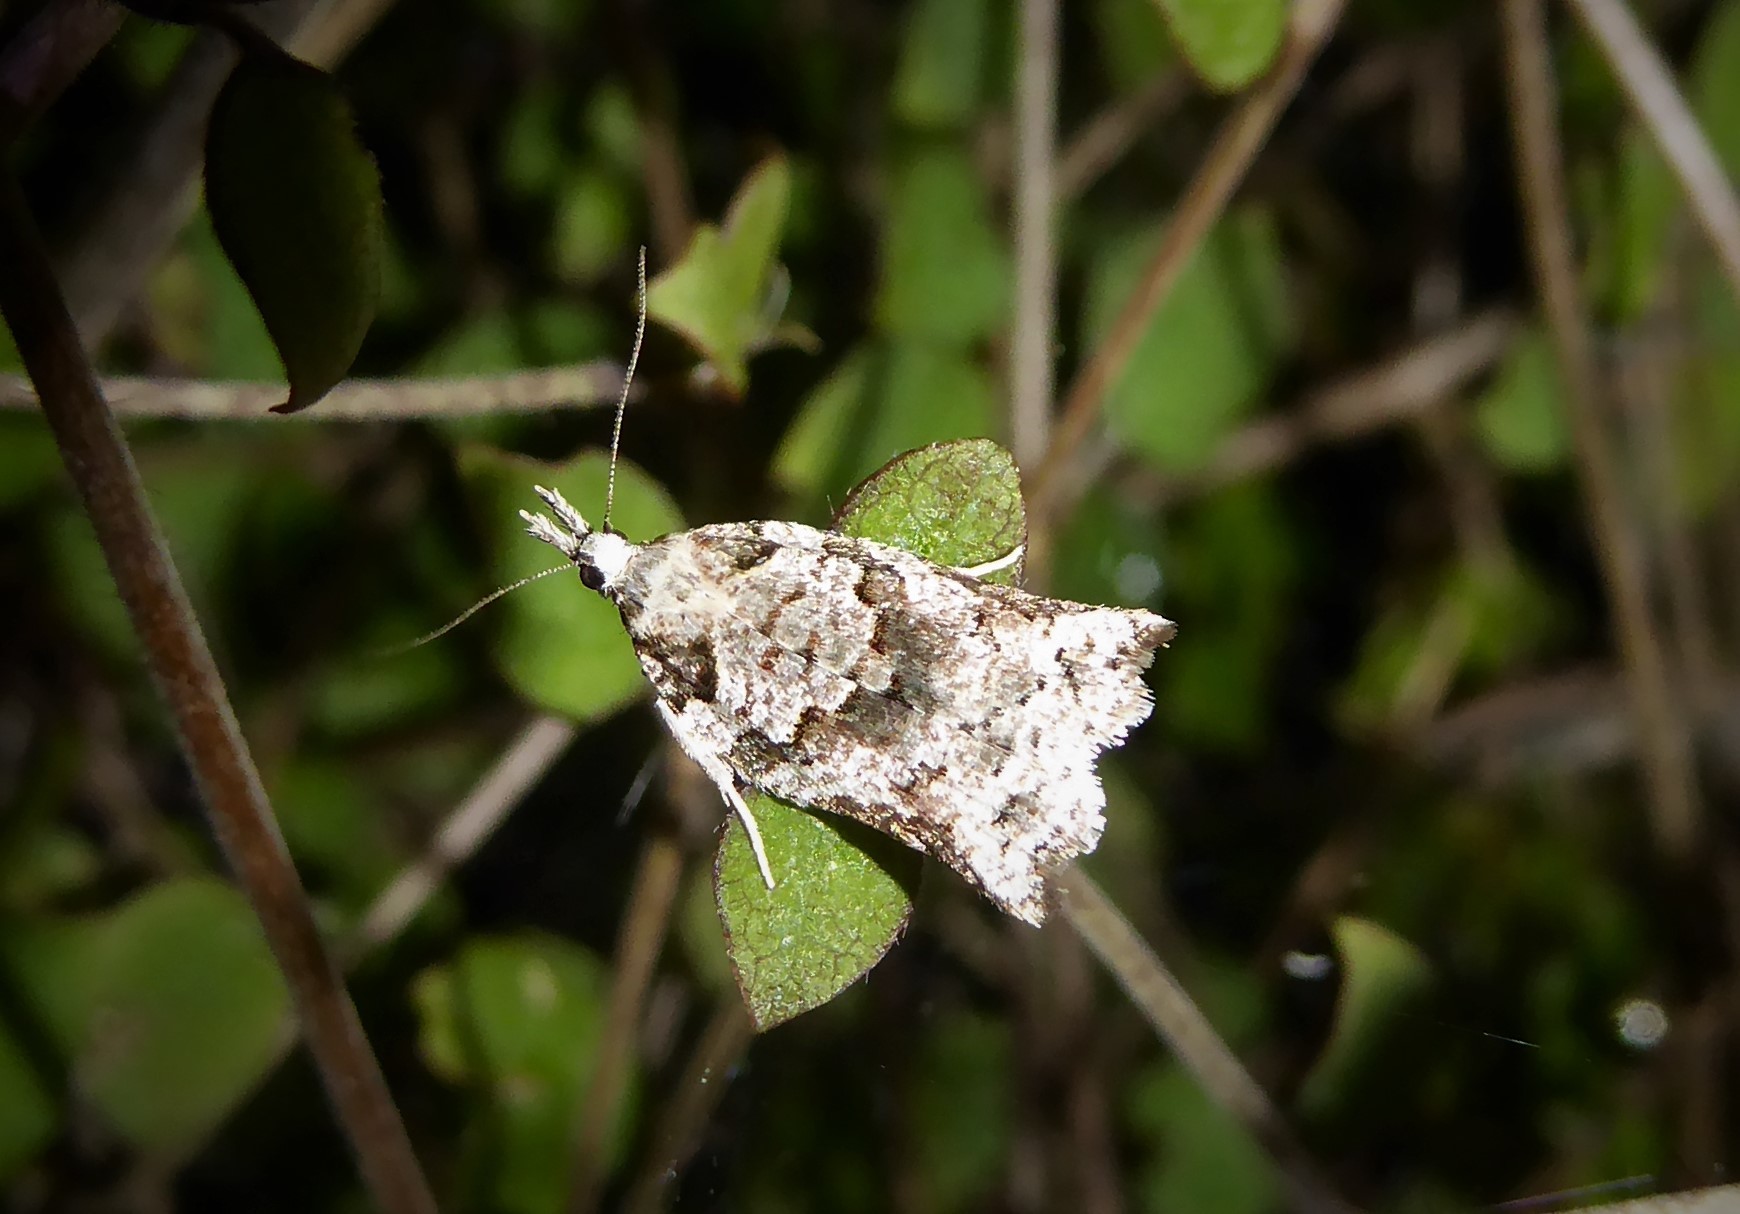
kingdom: Animalia
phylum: Arthropoda
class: Insecta
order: Lepidoptera
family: Tortricidae
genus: Harmologa
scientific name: Harmologa amplexana
